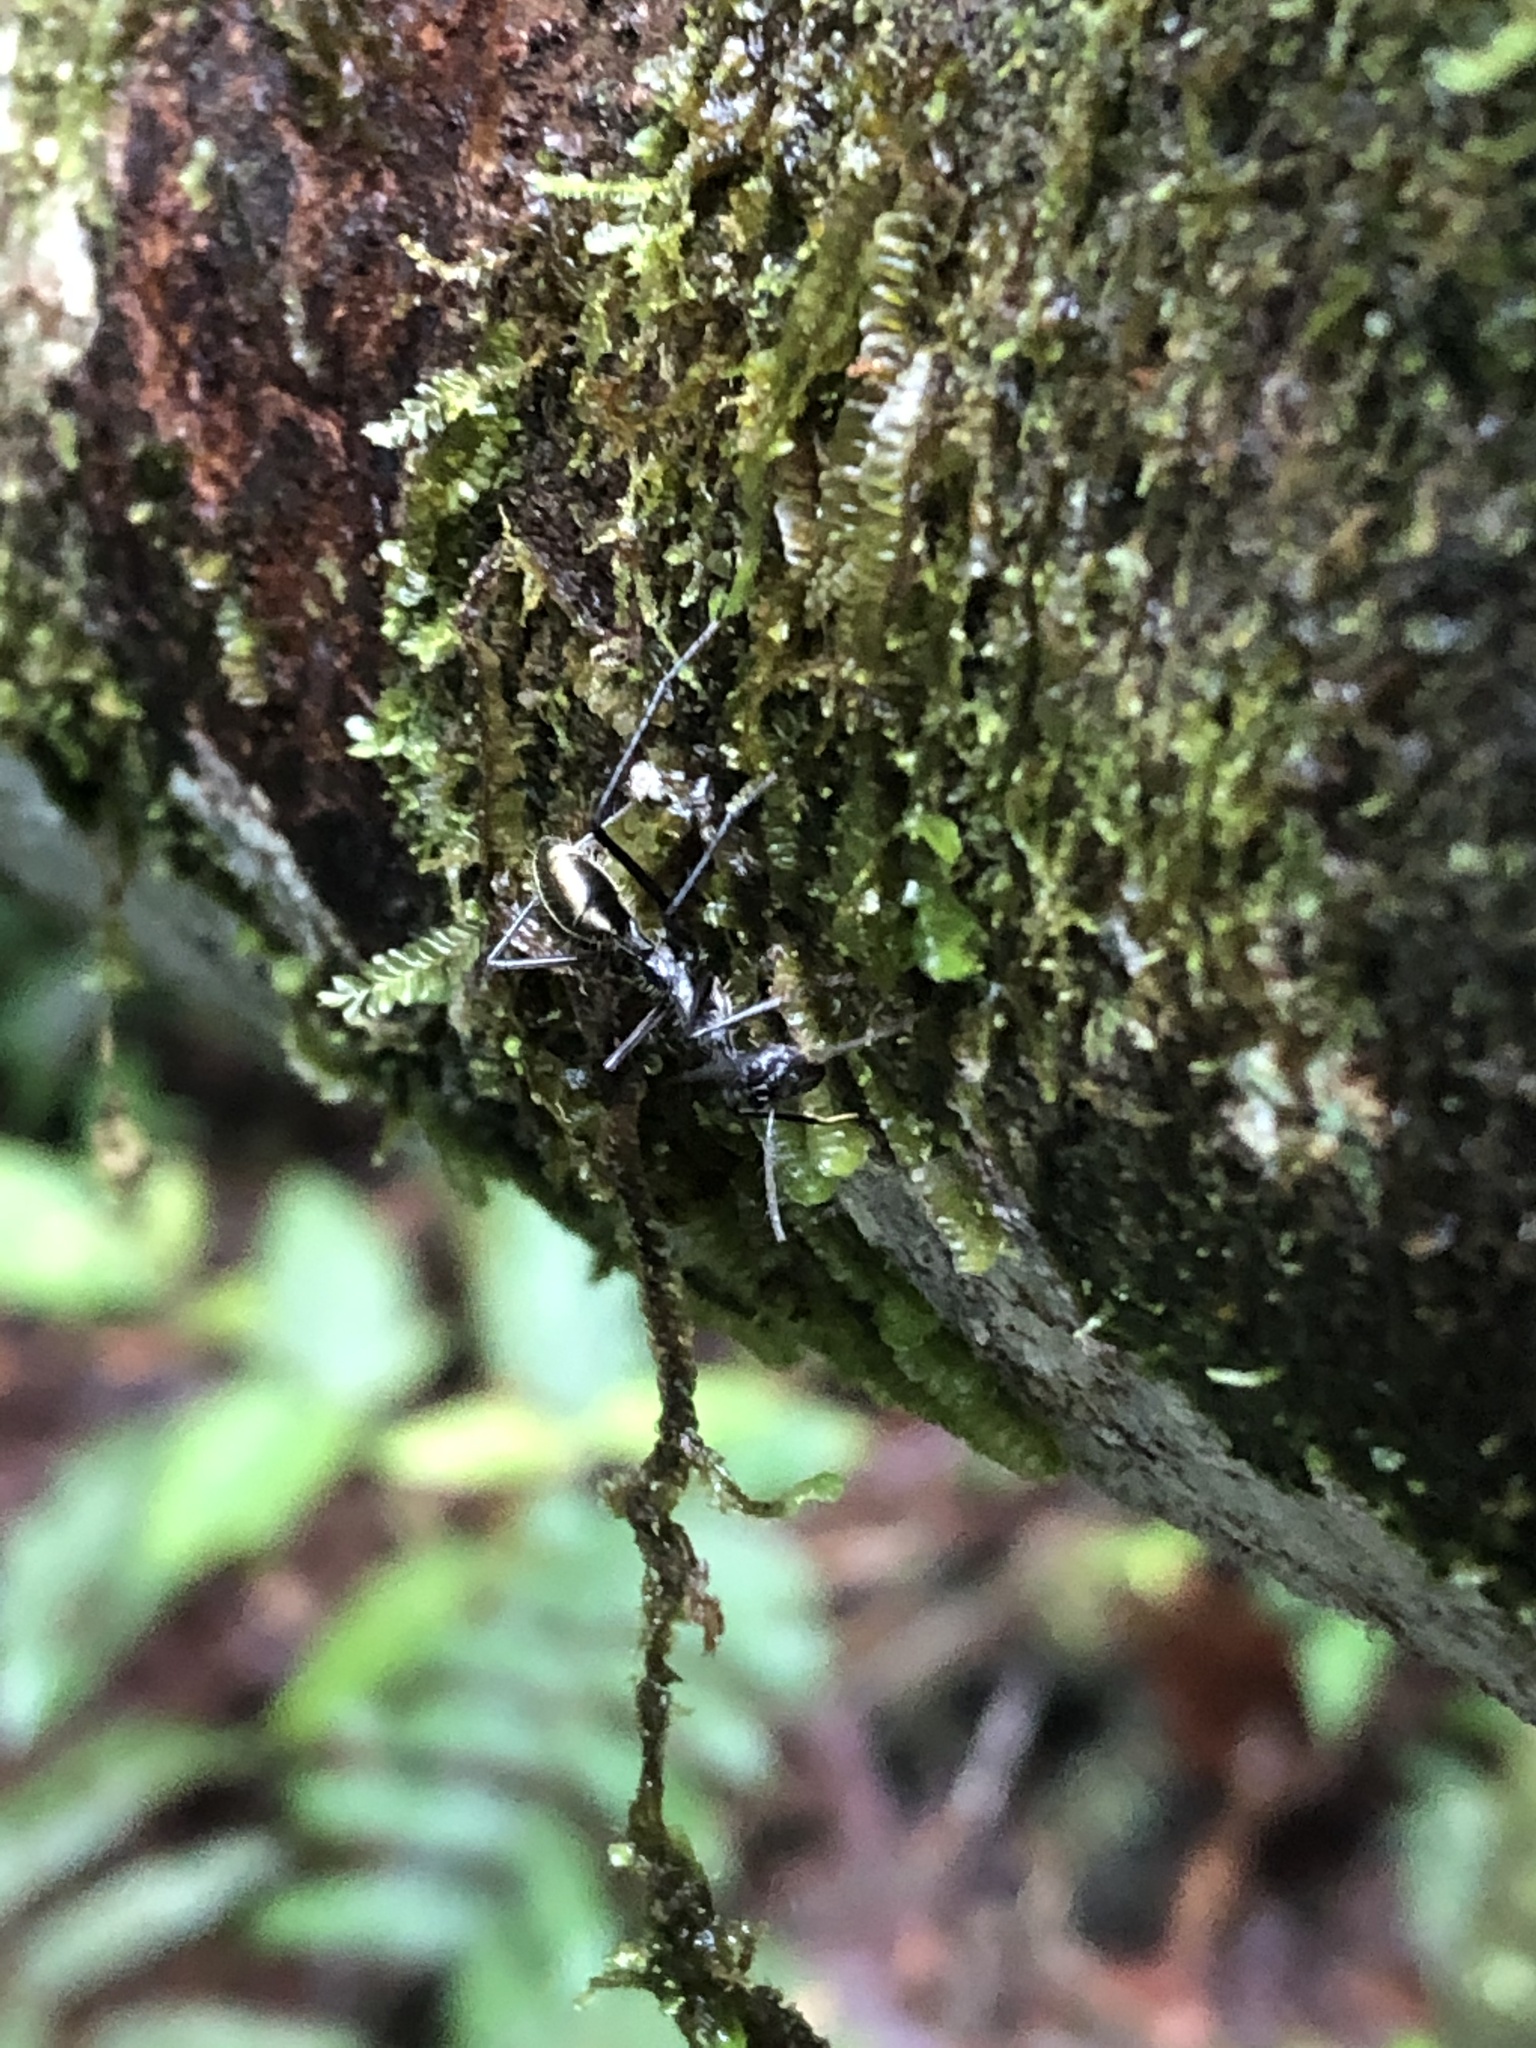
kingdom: Animalia
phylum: Arthropoda
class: Insecta
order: Hymenoptera
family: Formicidae
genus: Dolichoderus
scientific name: Dolichoderus rugosus
